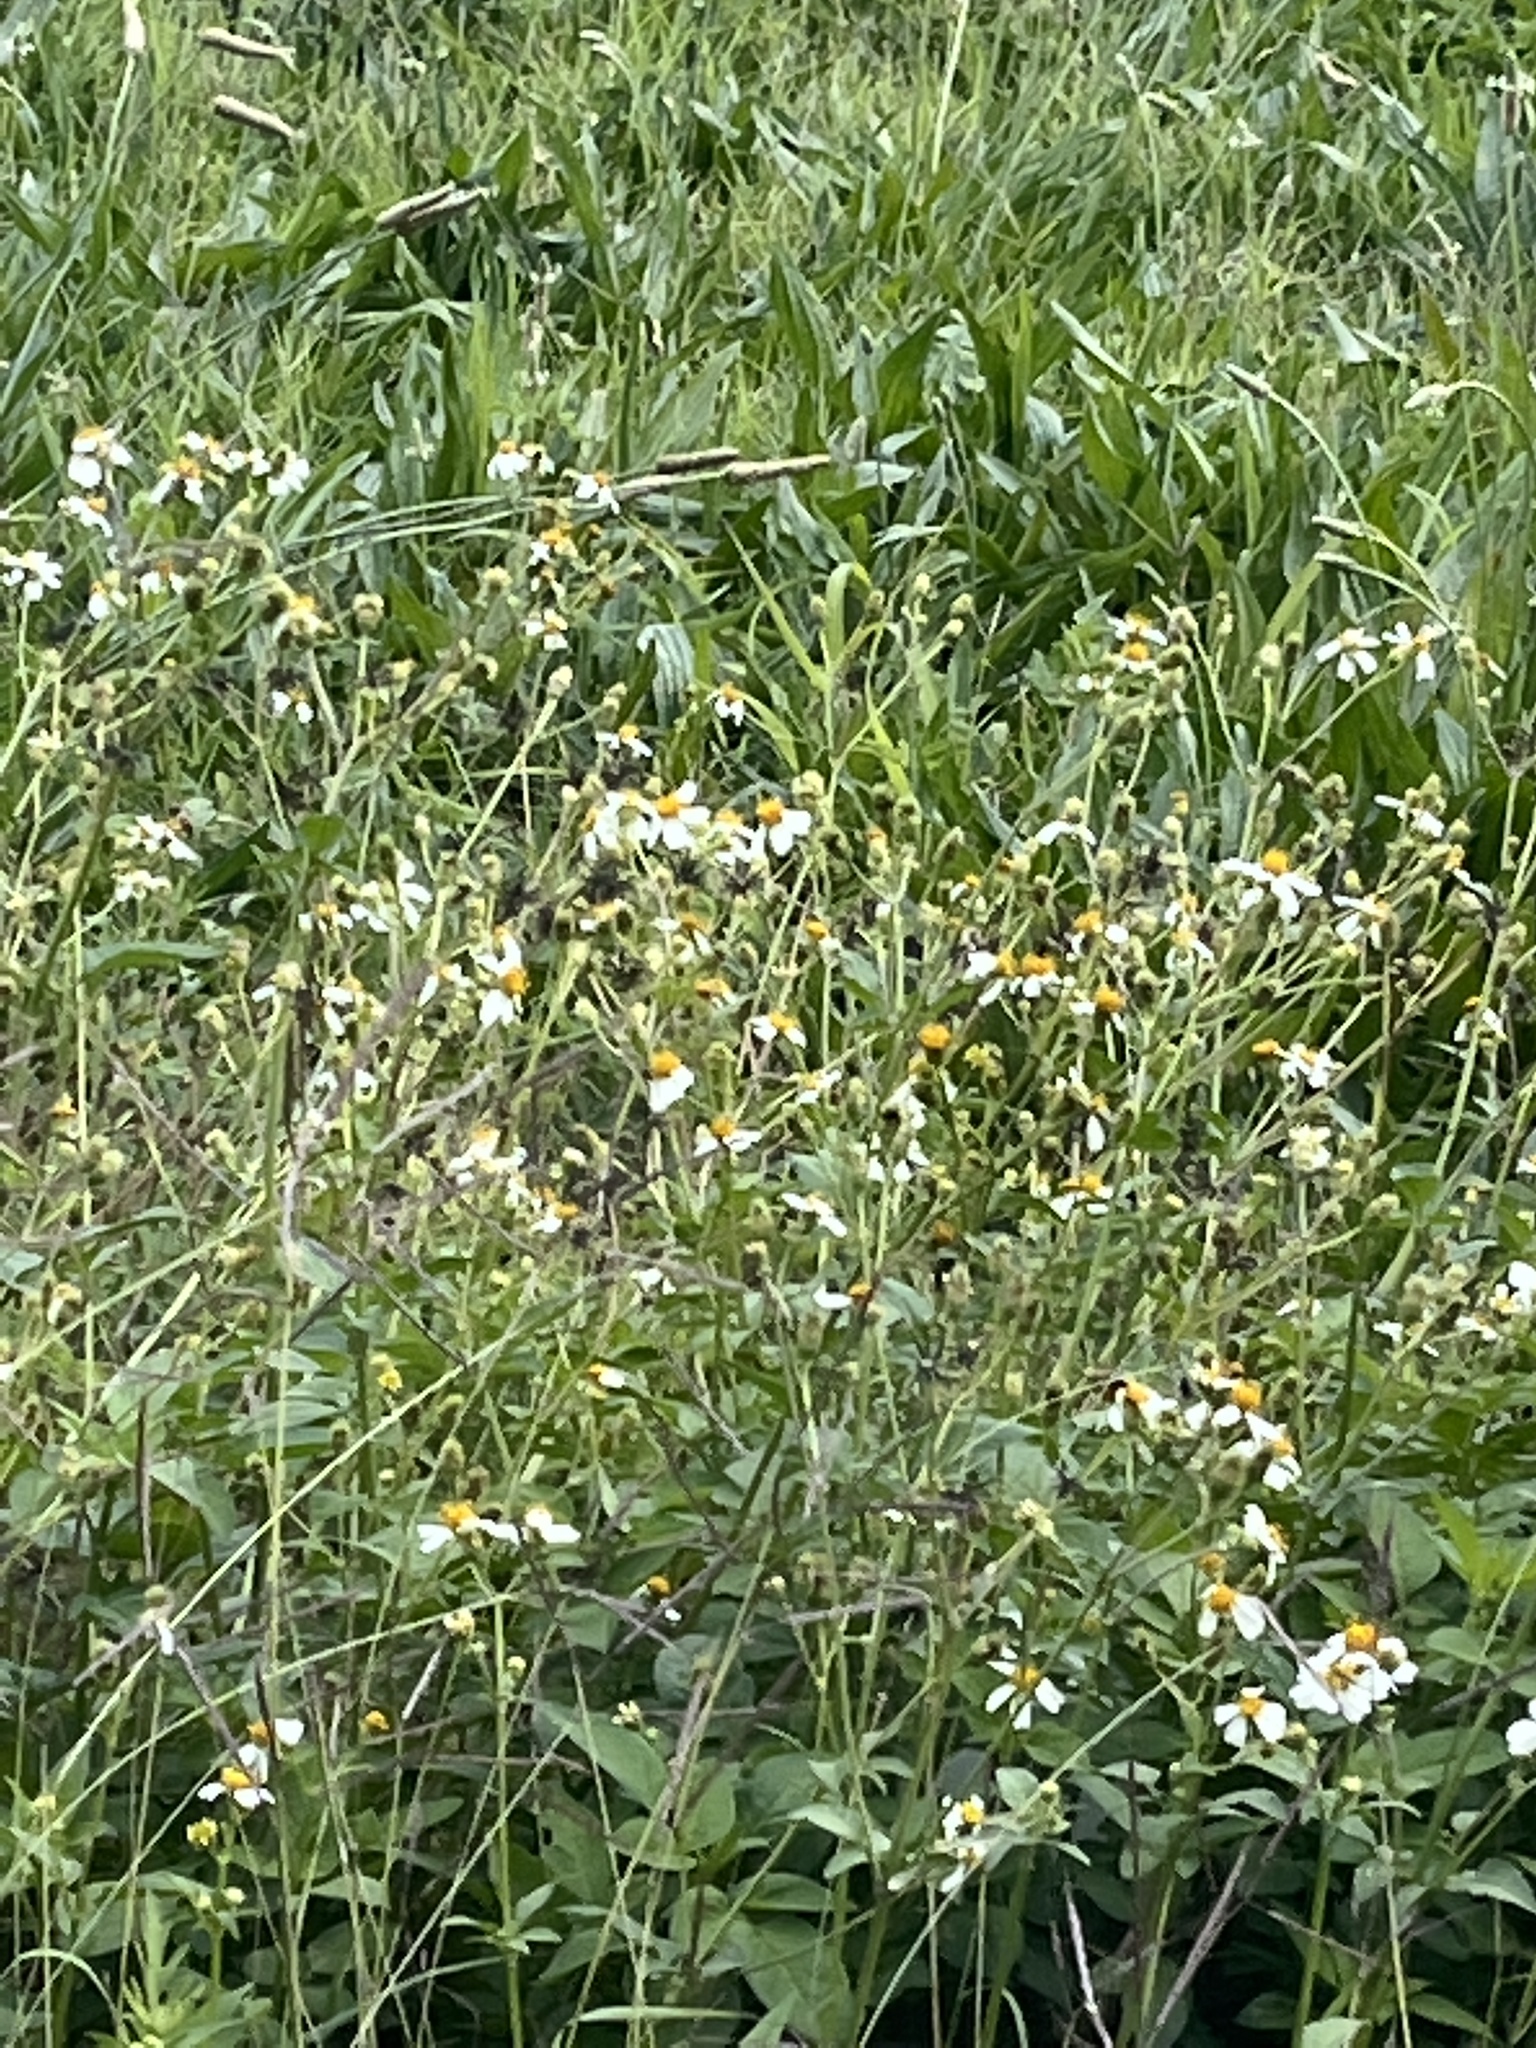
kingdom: Plantae
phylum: Tracheophyta
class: Magnoliopsida
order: Asterales
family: Asteraceae
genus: Bidens
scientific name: Bidens alba
